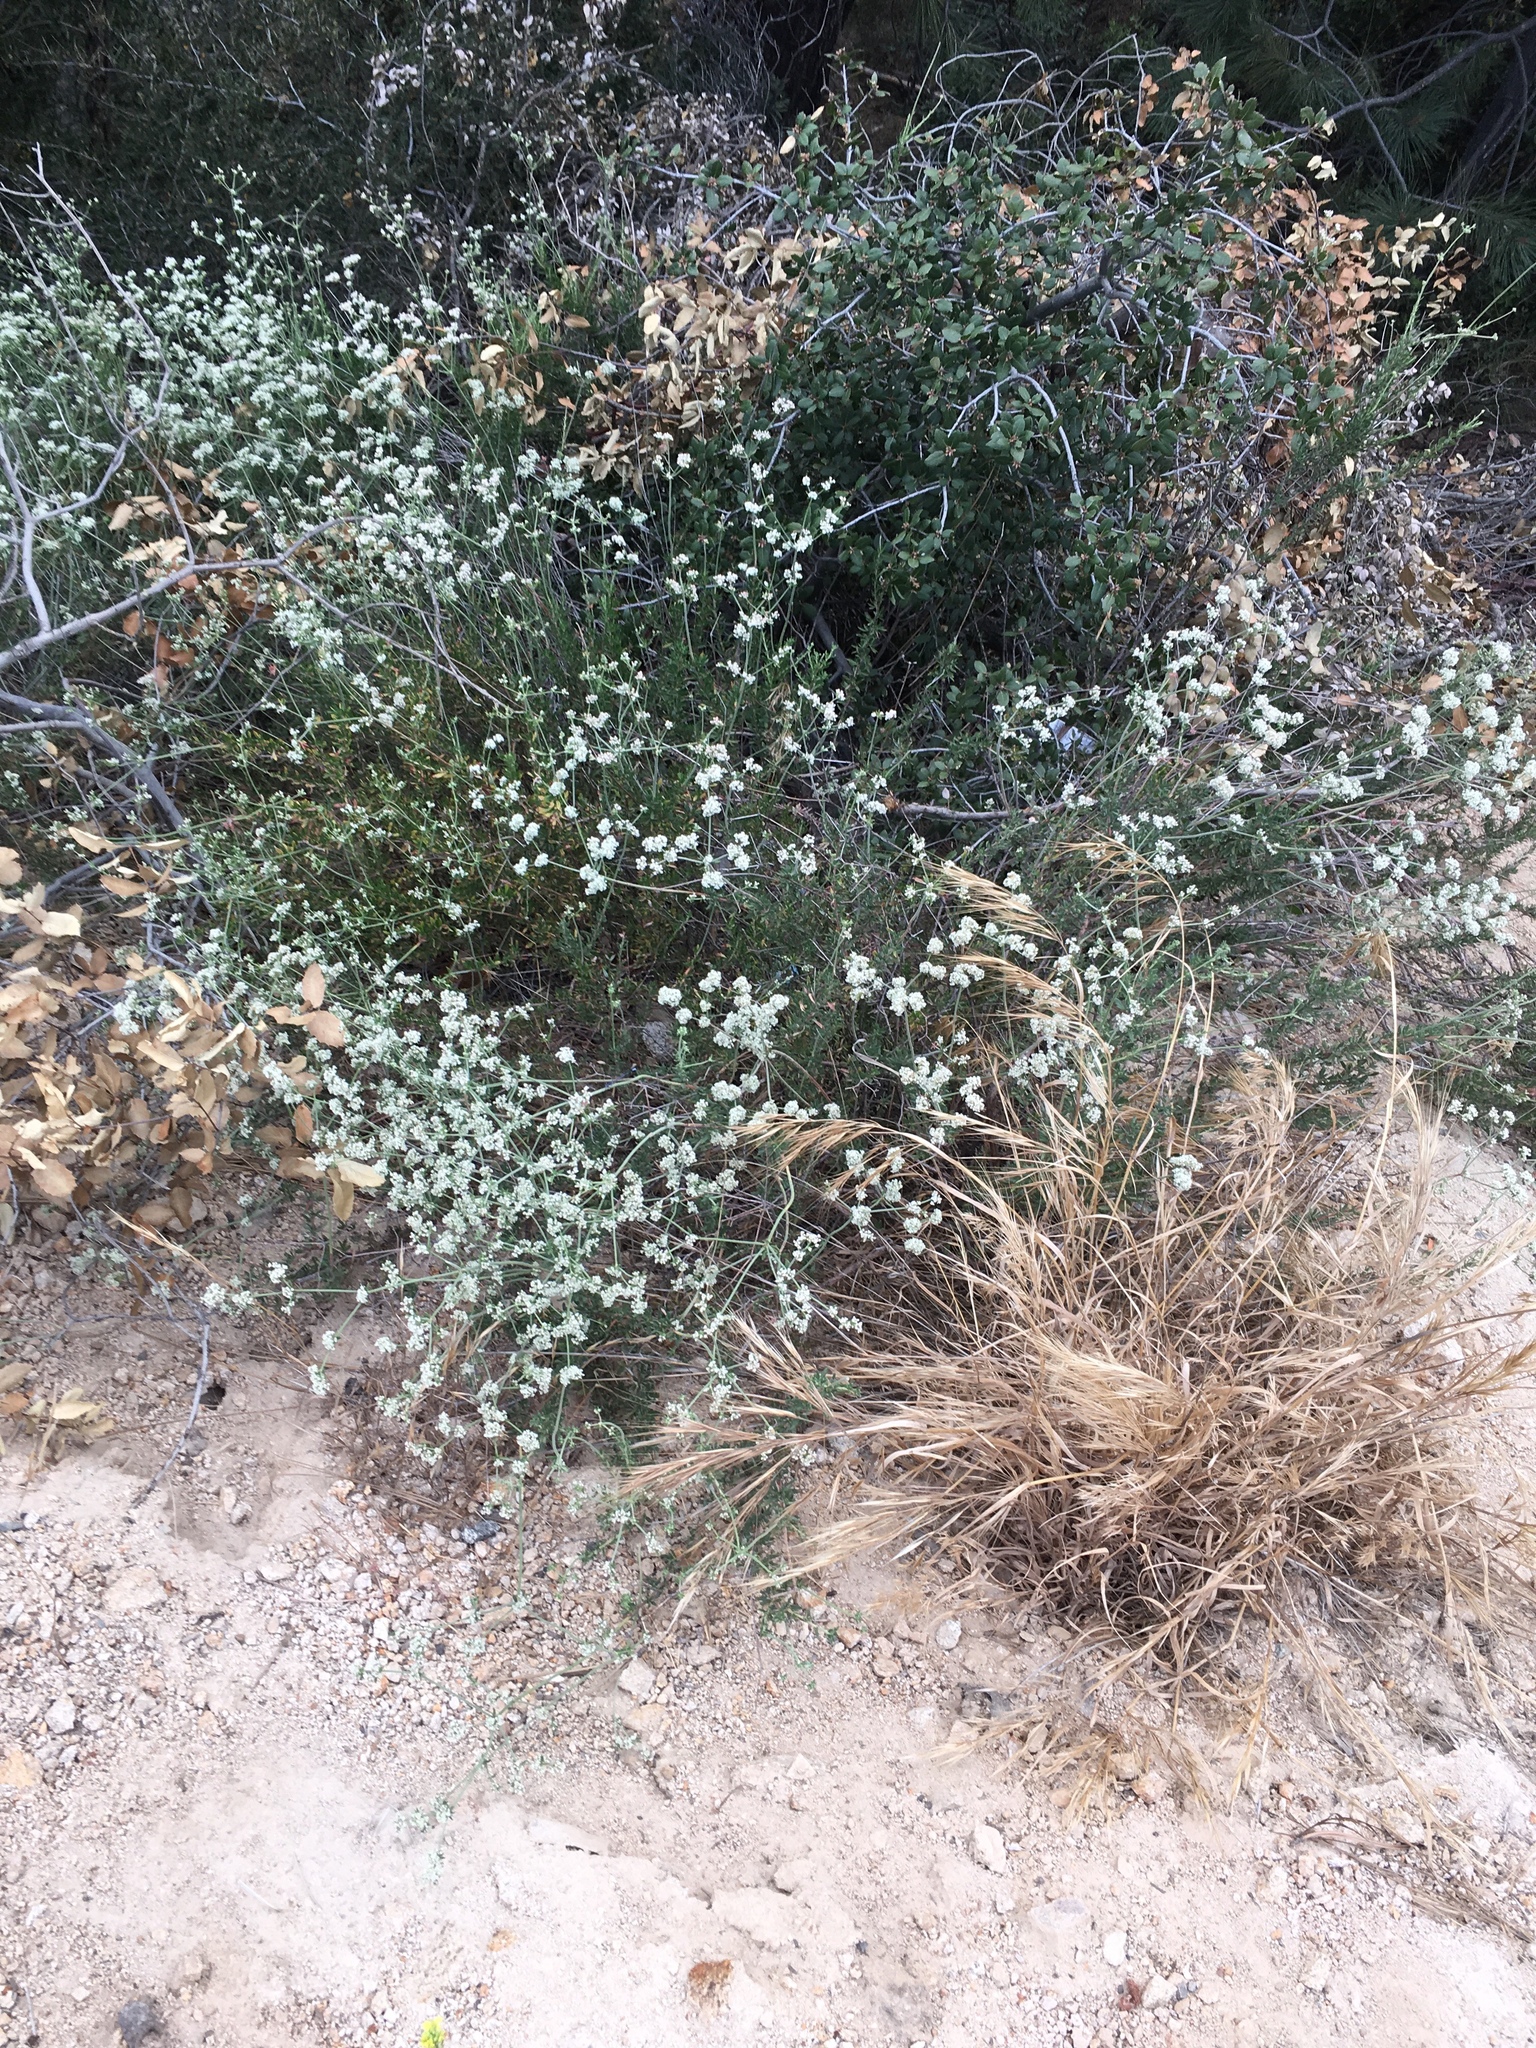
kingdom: Plantae
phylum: Tracheophyta
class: Magnoliopsida
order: Caryophyllales
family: Polygonaceae
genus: Eriogonum
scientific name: Eriogonum fasciculatum
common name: California wild buckwheat
